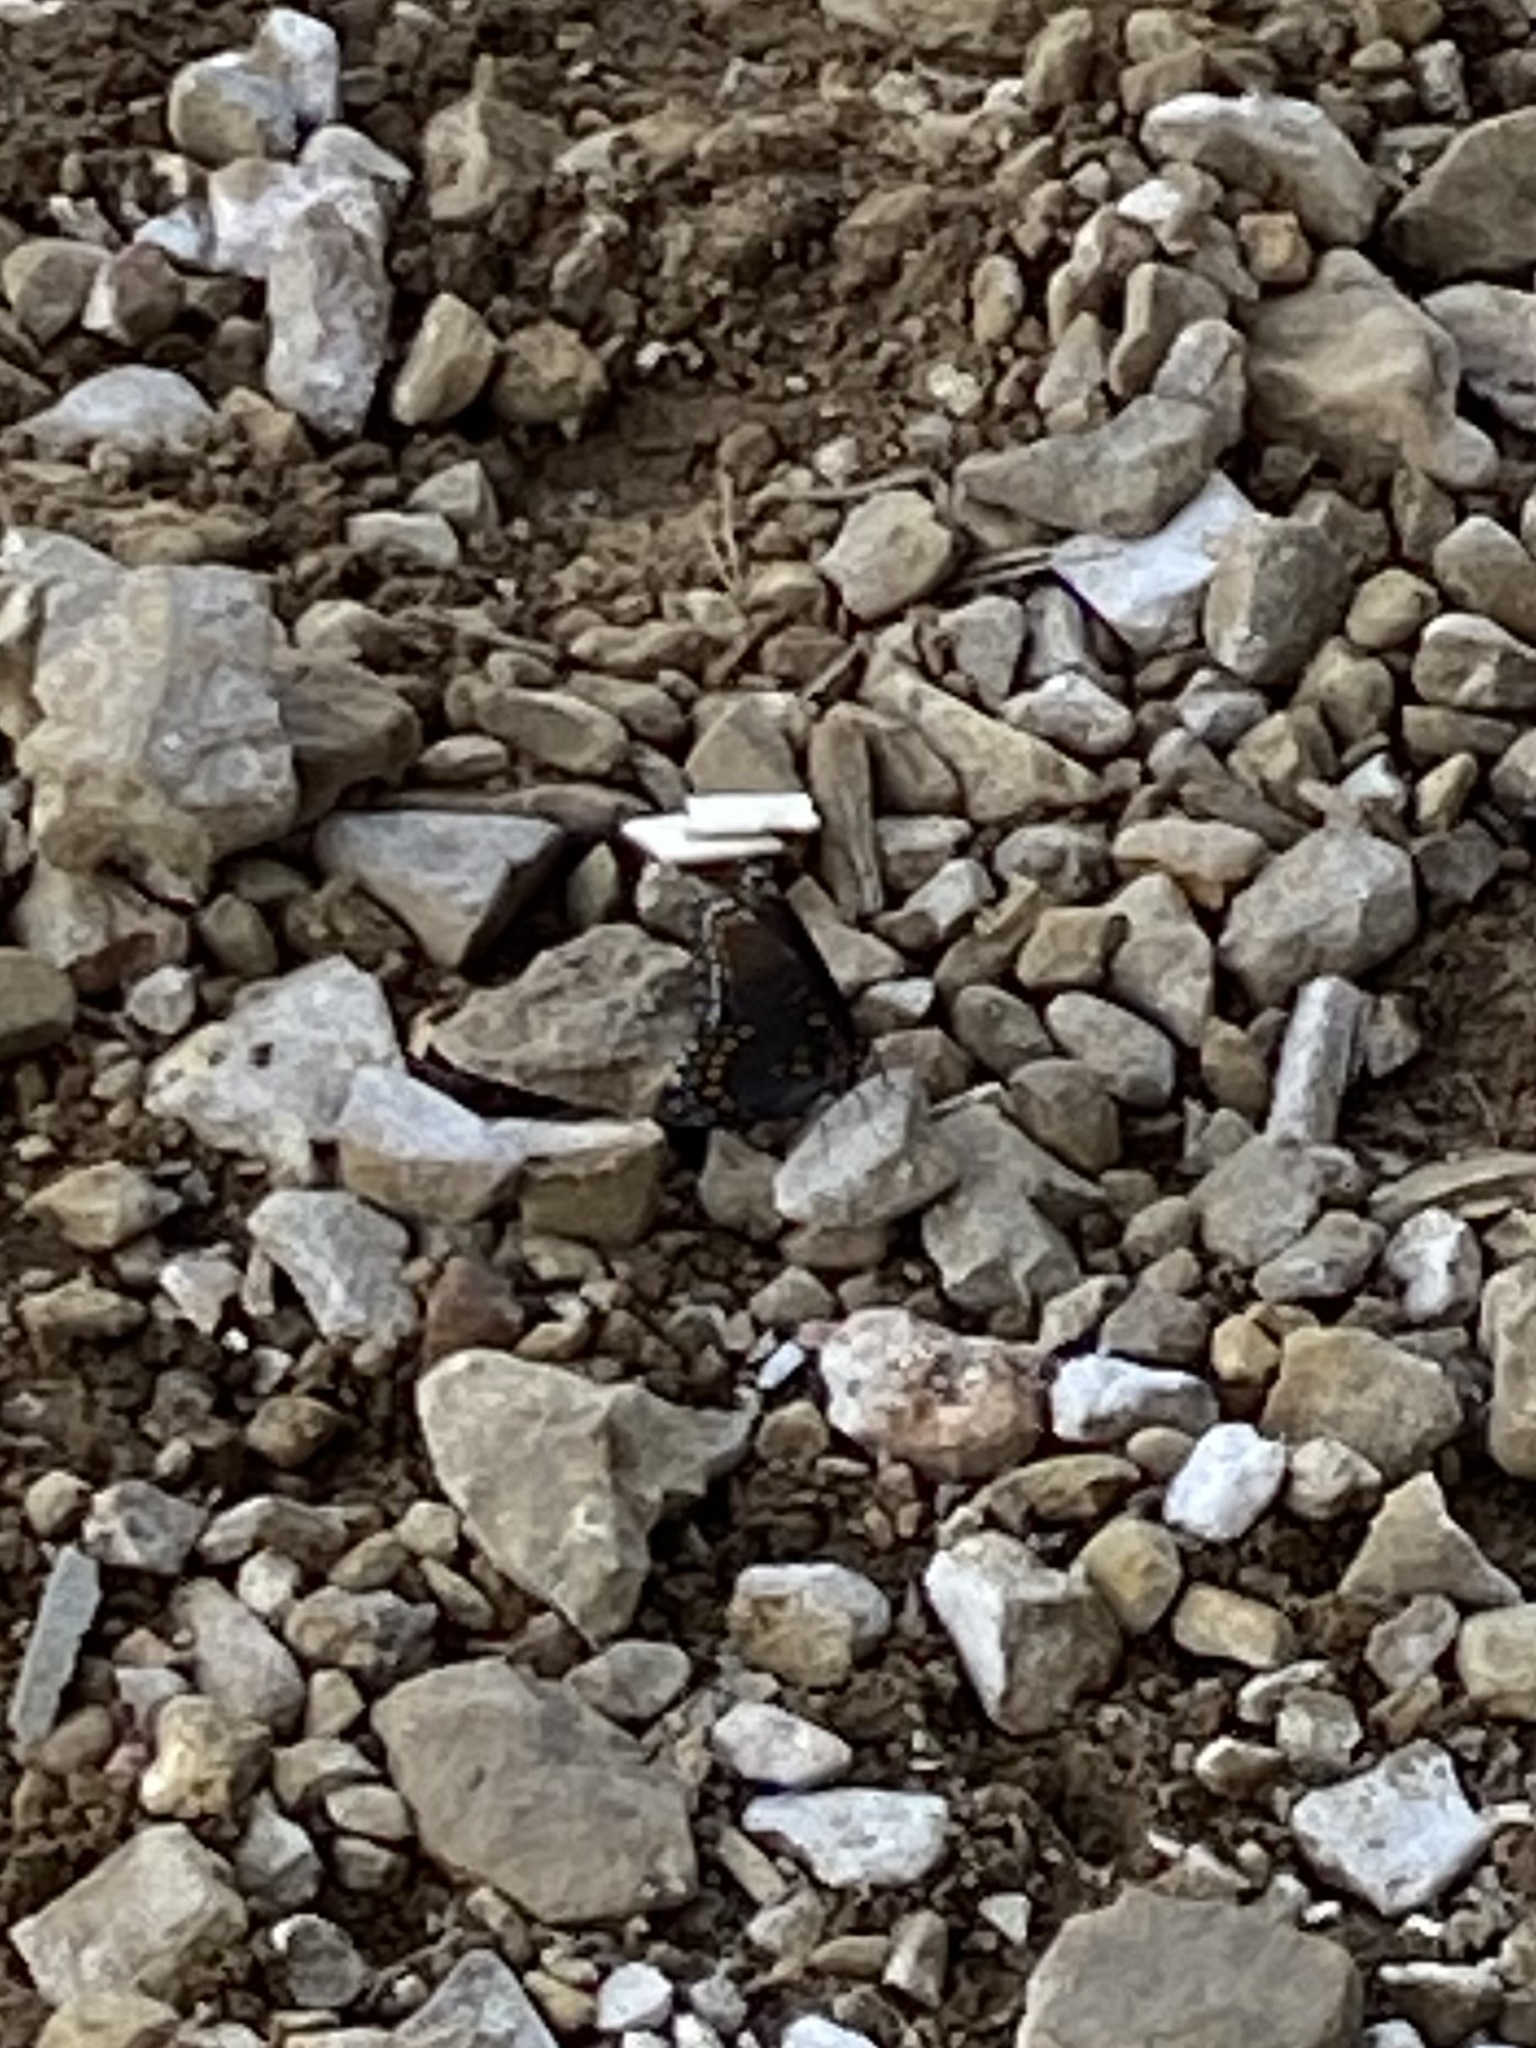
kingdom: Animalia
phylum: Arthropoda
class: Insecta
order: Lepidoptera
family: Nymphalidae
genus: Limenitis
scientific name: Limenitis astyanax
